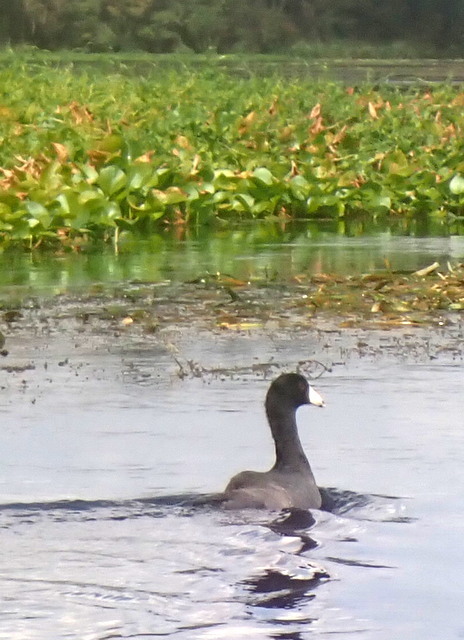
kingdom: Animalia
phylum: Chordata
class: Aves
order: Gruiformes
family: Rallidae
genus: Fulica
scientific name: Fulica americana
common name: American coot
